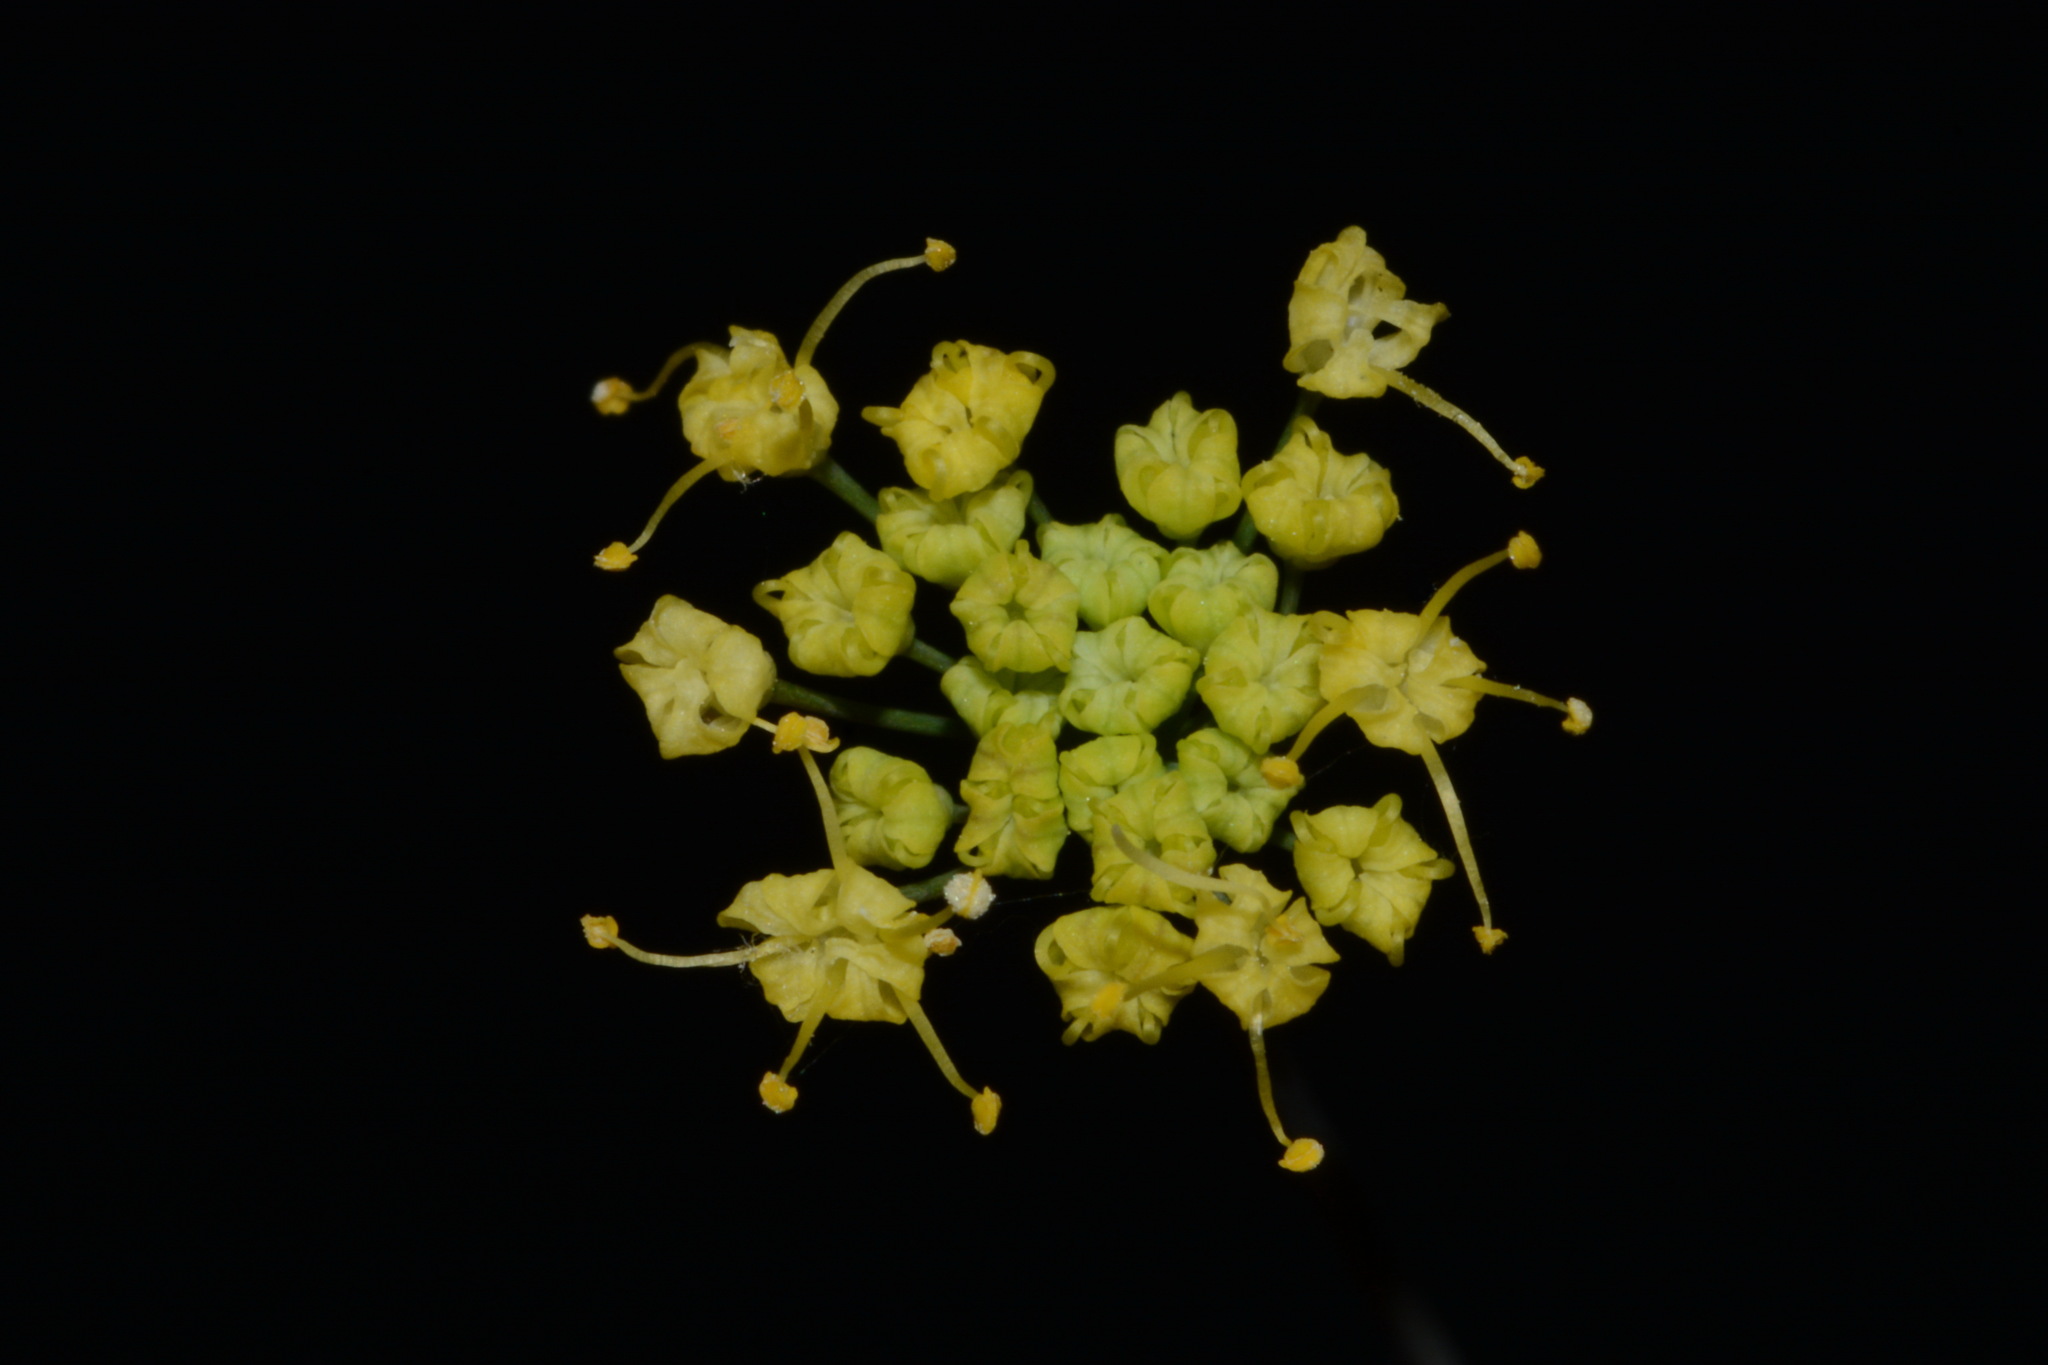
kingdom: Plantae
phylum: Tracheophyta
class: Magnoliopsida
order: Apiales
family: Apiaceae
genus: Taenidia
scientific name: Taenidia integerrima
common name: Golden alexander
